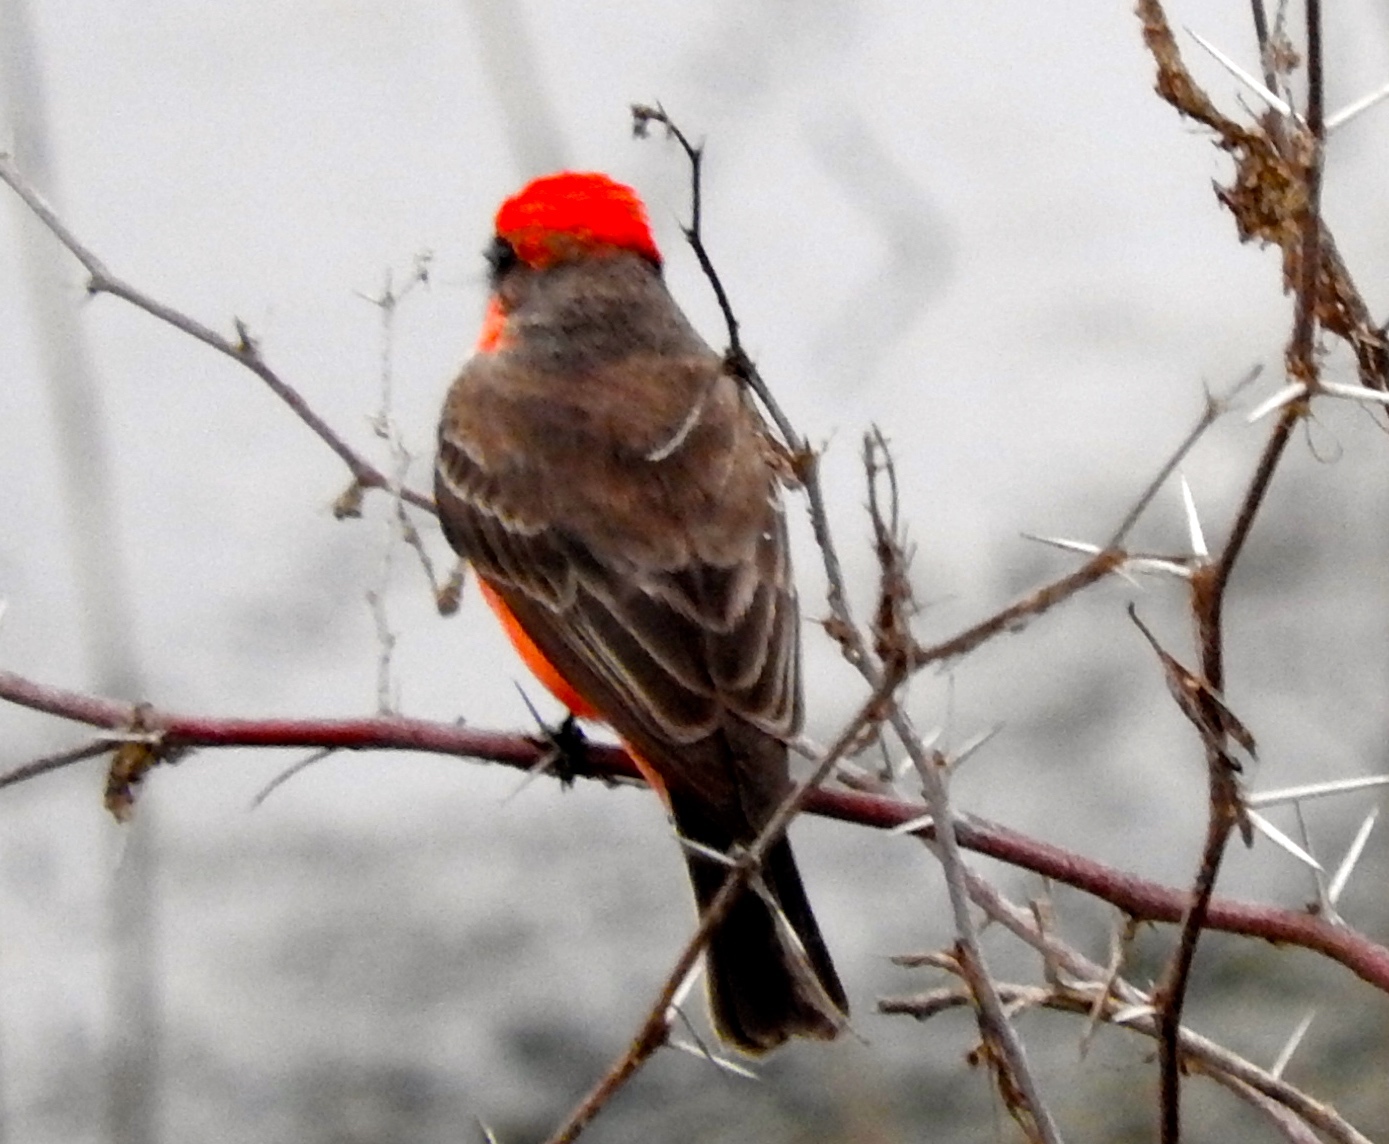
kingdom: Animalia
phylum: Chordata
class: Aves
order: Passeriformes
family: Tyrannidae
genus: Pyrocephalus
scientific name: Pyrocephalus rubinus
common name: Vermilion flycatcher
